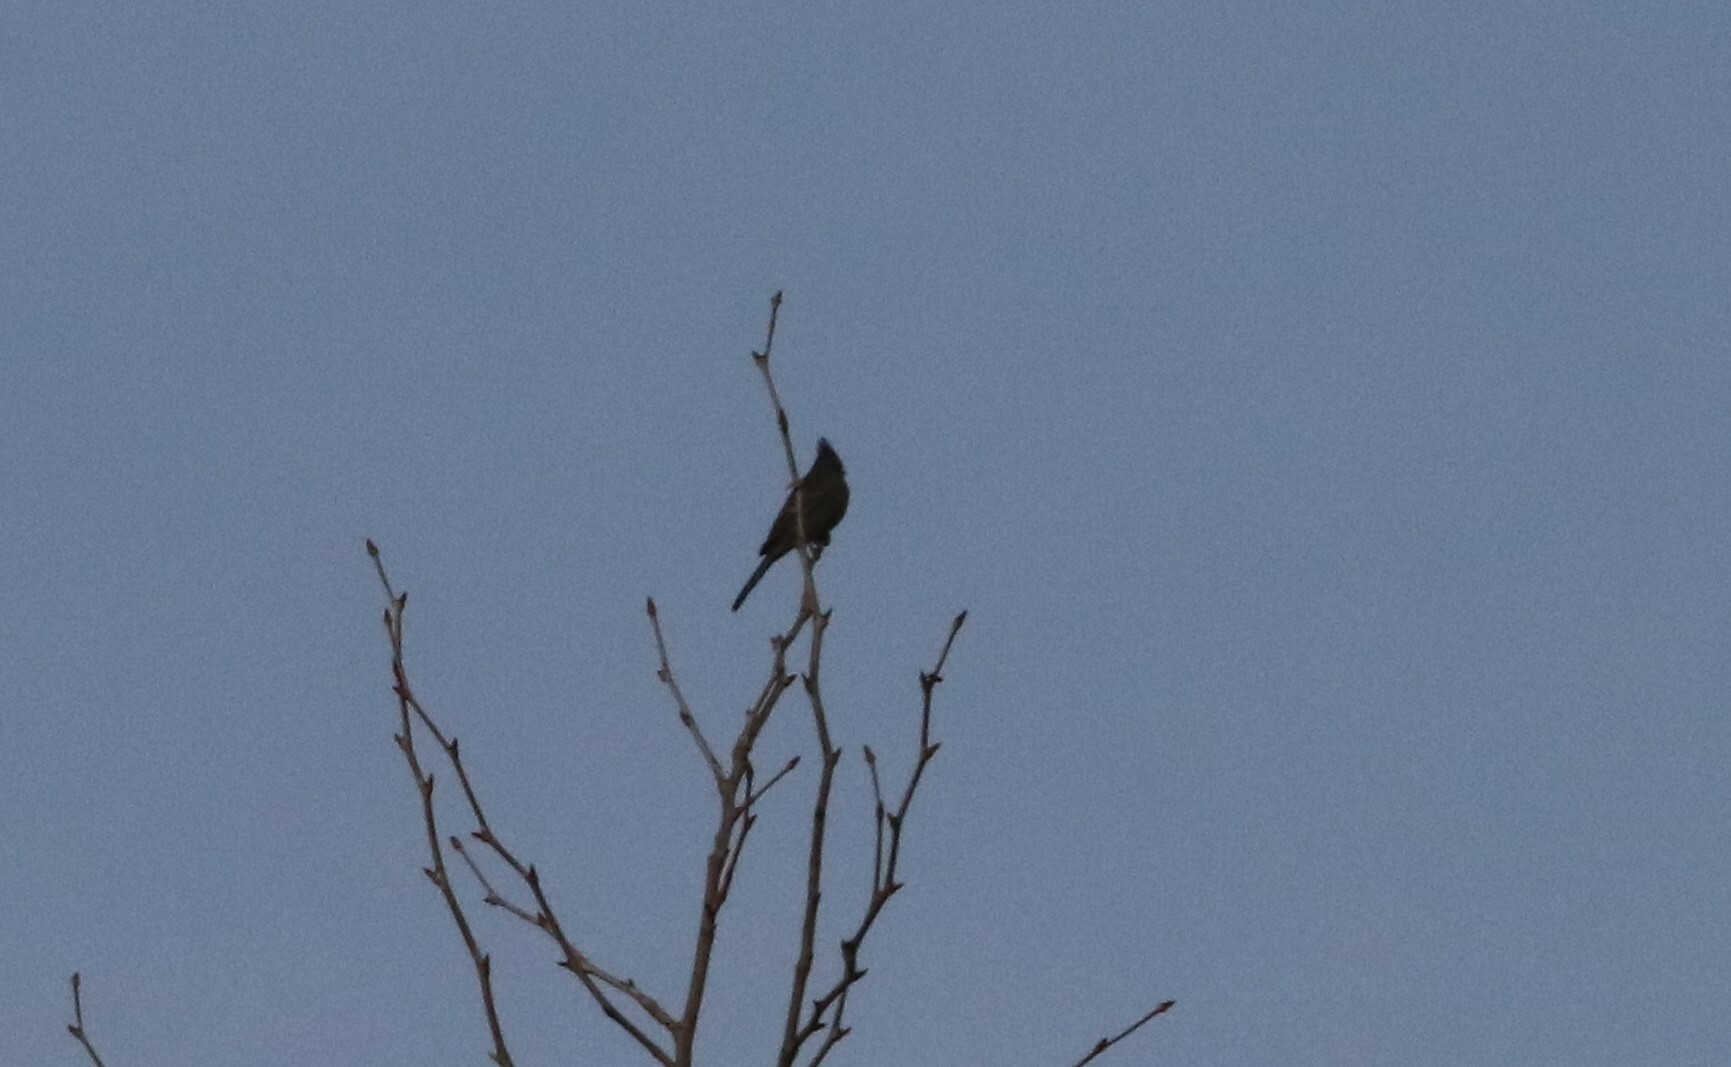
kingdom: Animalia
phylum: Chordata
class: Aves
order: Passeriformes
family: Ptilogonatidae
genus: Phainopepla
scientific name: Phainopepla nitens
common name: Phainopepla
